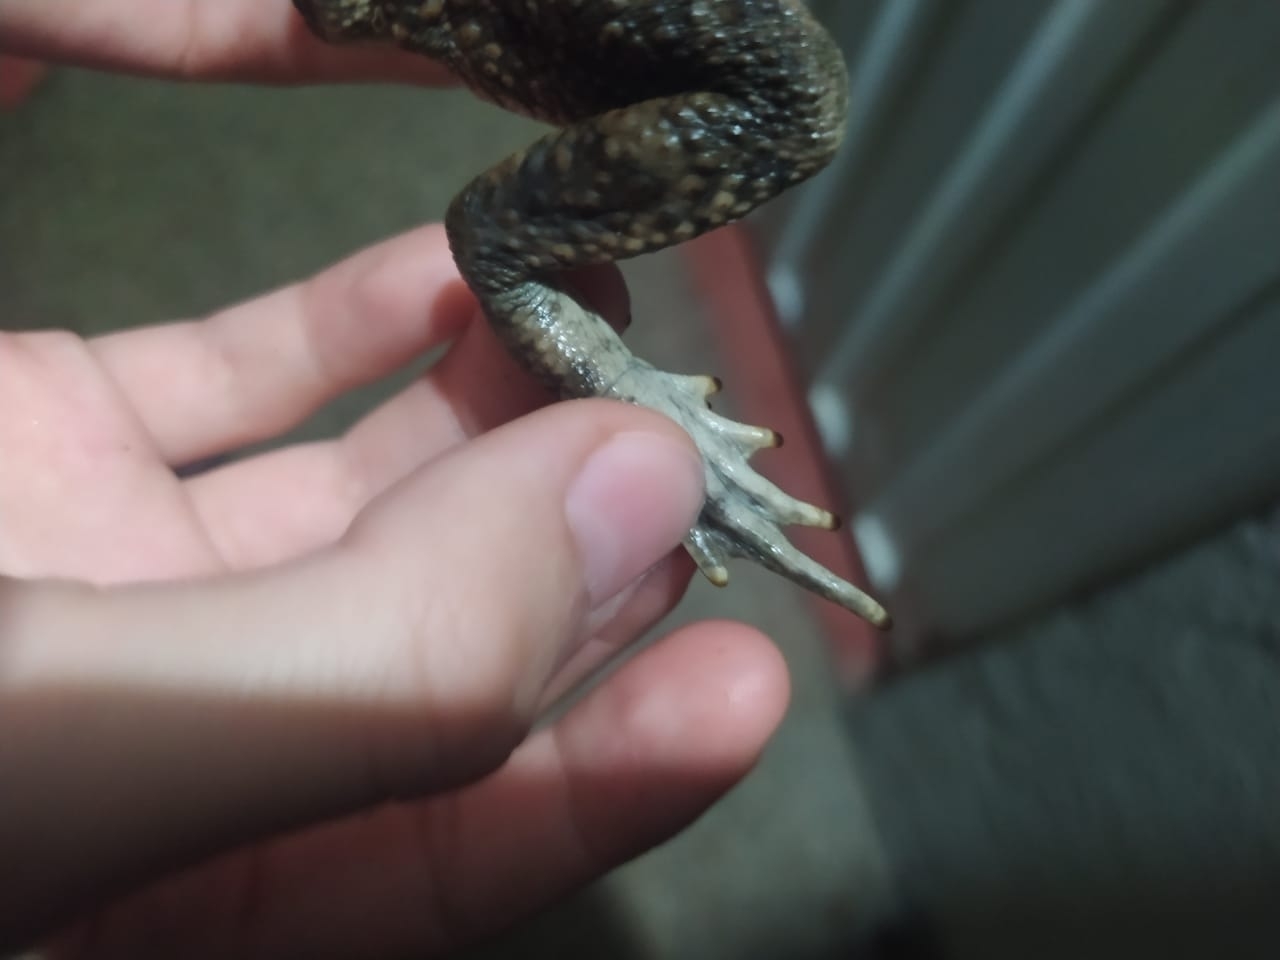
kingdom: Animalia
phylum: Chordata
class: Amphibia
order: Anura
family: Bufonidae
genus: Rhinella
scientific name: Rhinella horribilis
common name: Mesoamerican cane toad
